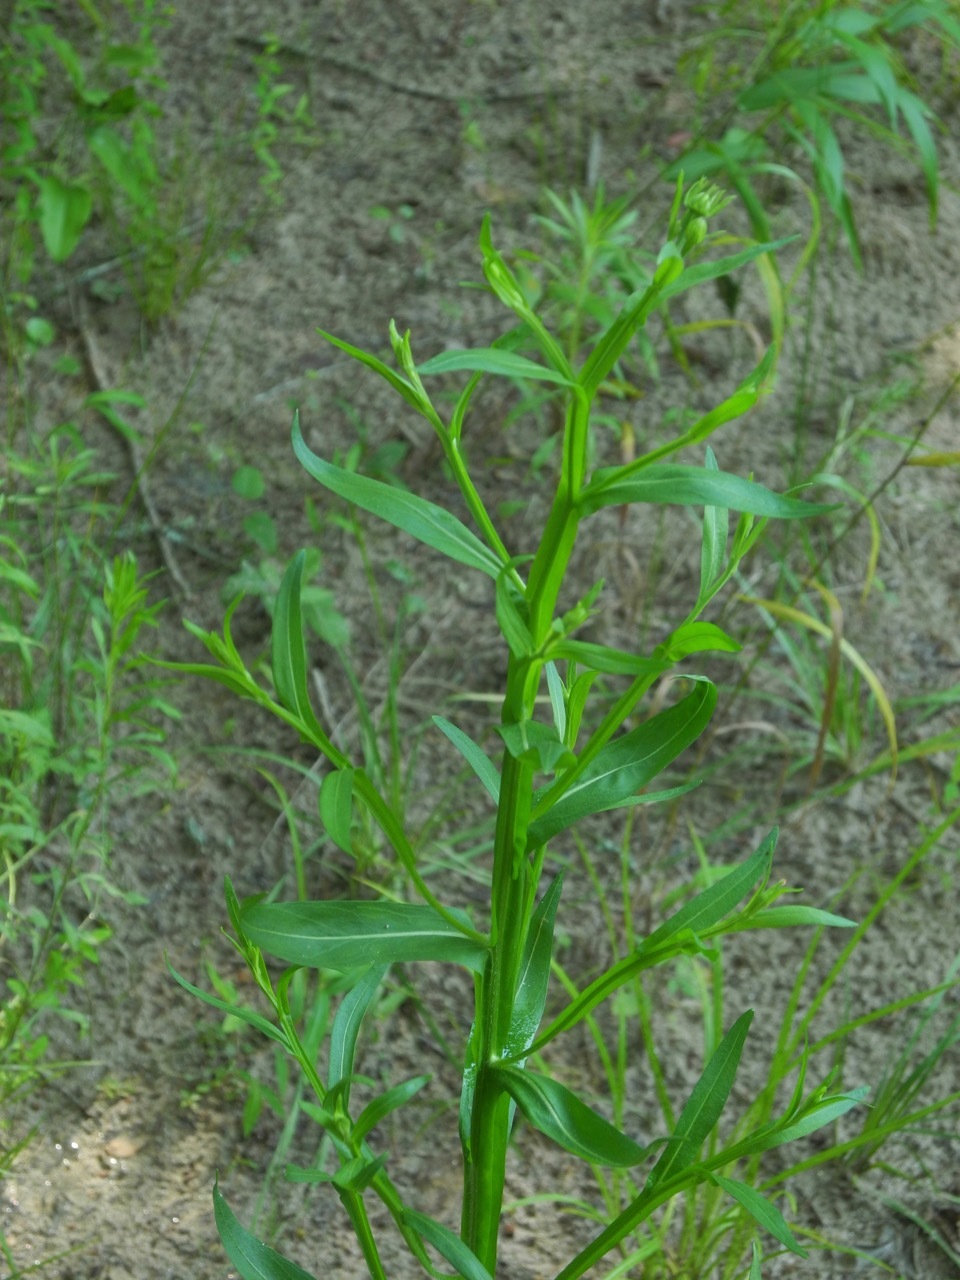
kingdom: Plantae
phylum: Tracheophyta
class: Magnoliopsida
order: Asterales
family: Asteraceae
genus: Helenium
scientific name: Helenium flexuosum
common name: Naked-flowered sneezeweed
